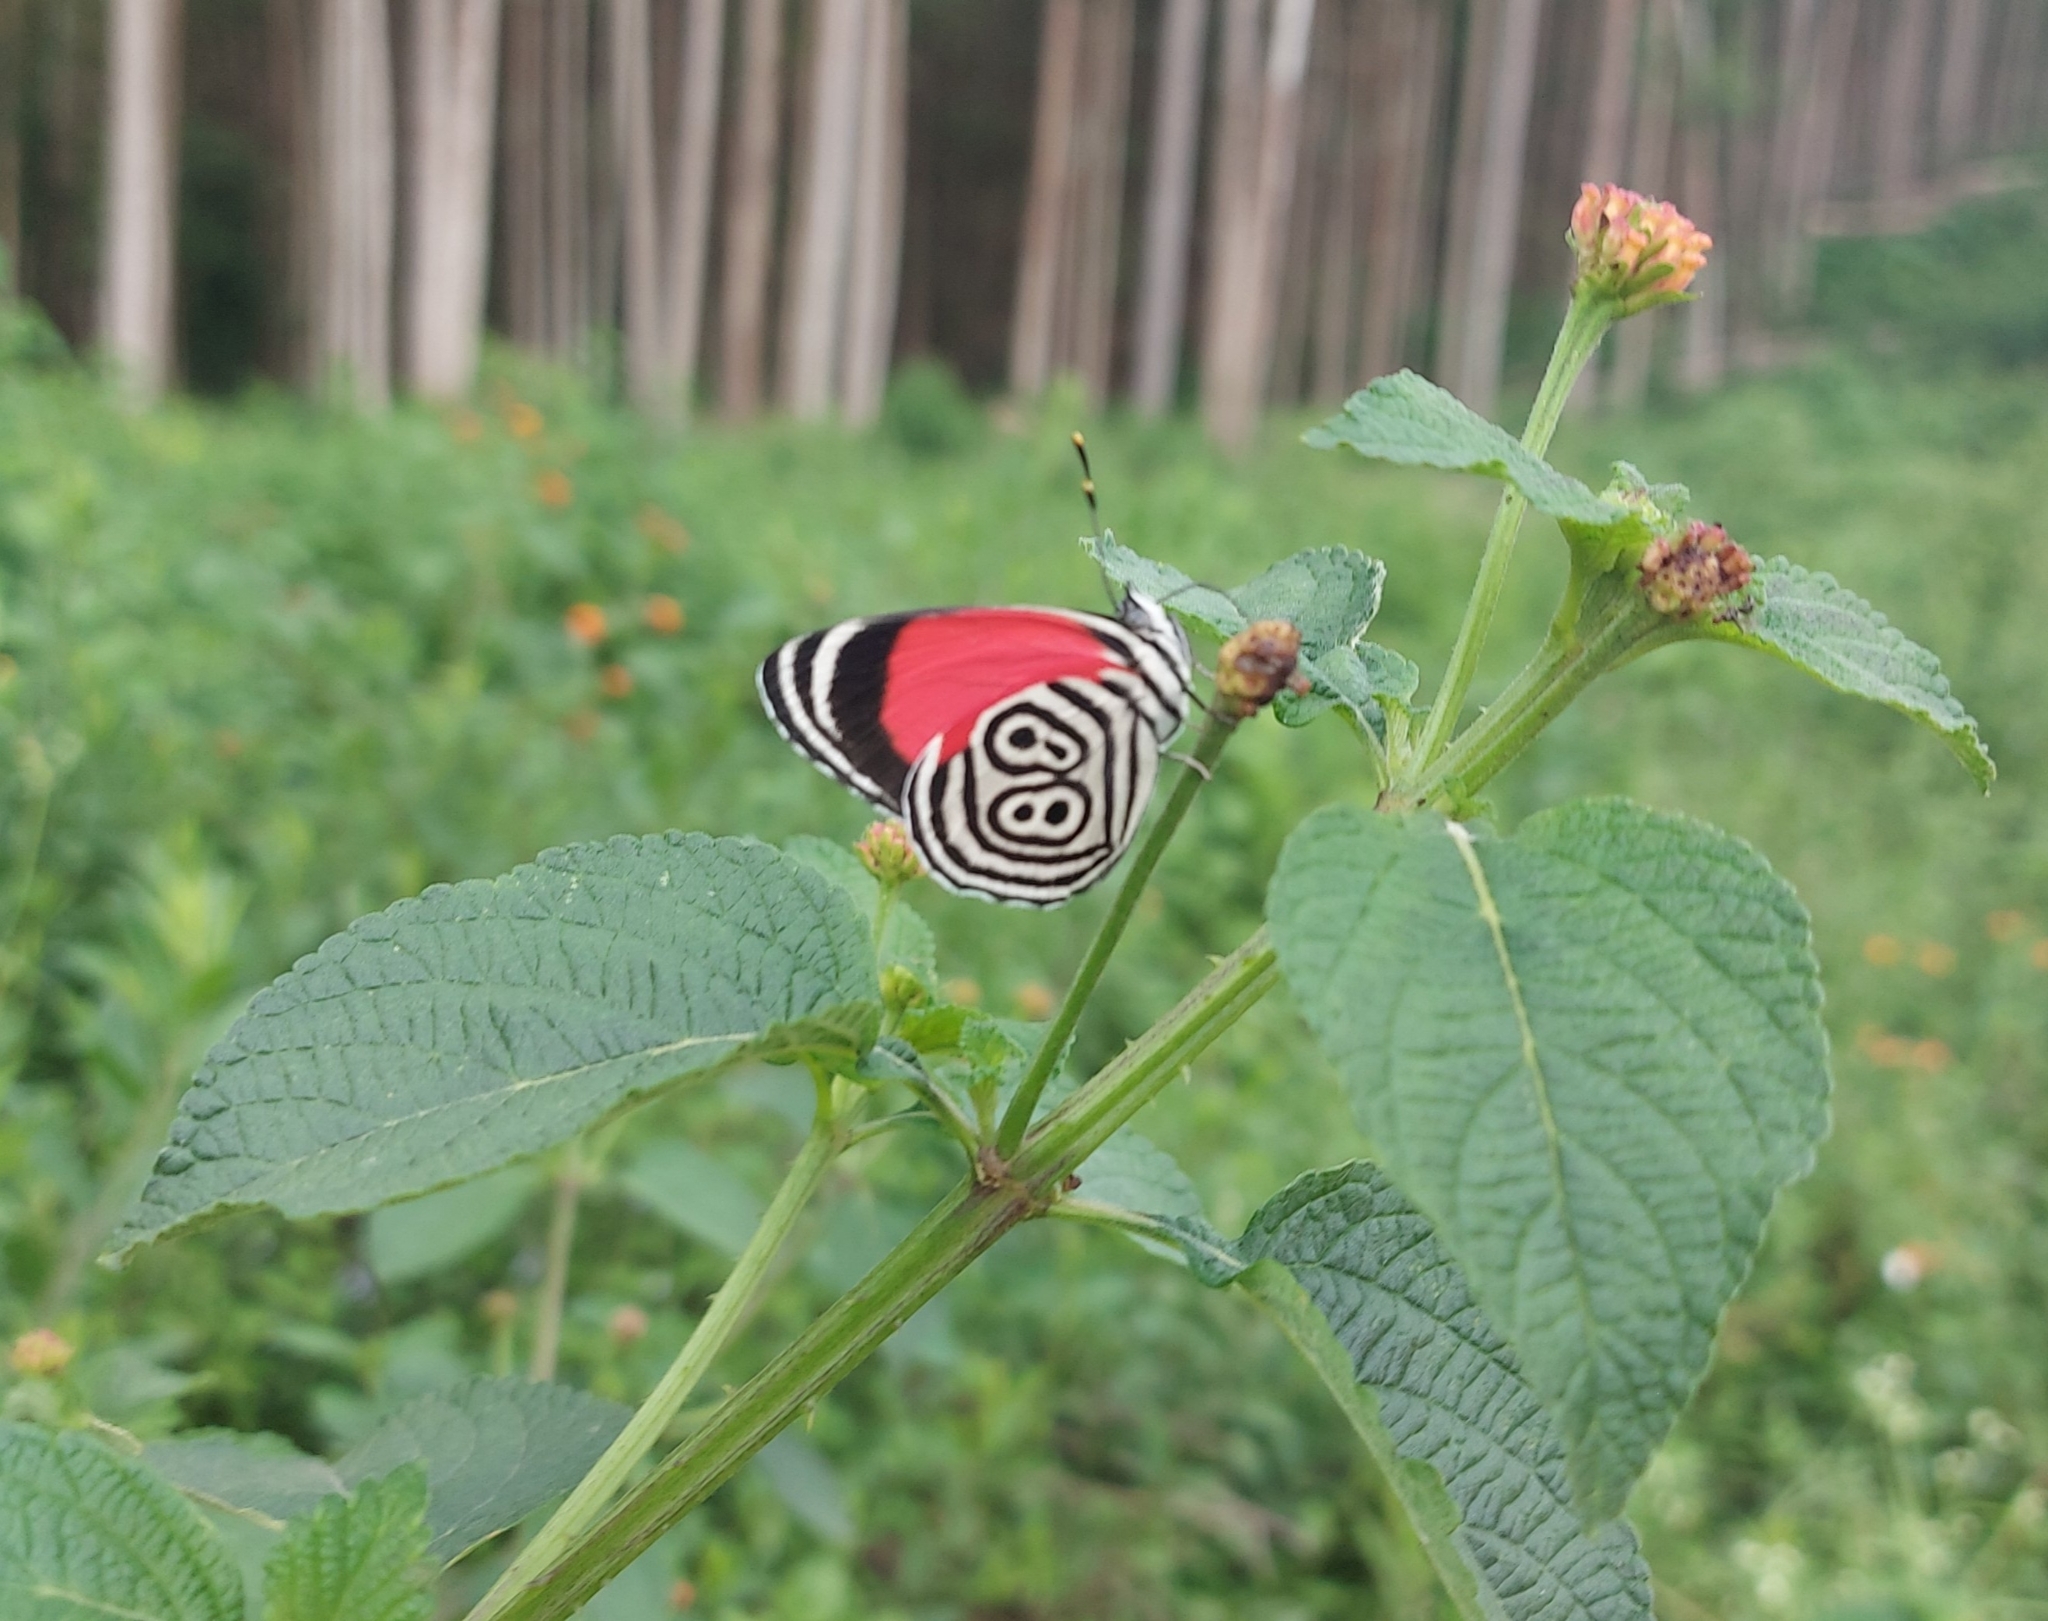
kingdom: Animalia
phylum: Arthropoda
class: Insecta
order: Lepidoptera
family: Nymphalidae
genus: Diaethria
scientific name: Diaethria clymena
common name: Widespread eighty-eight
